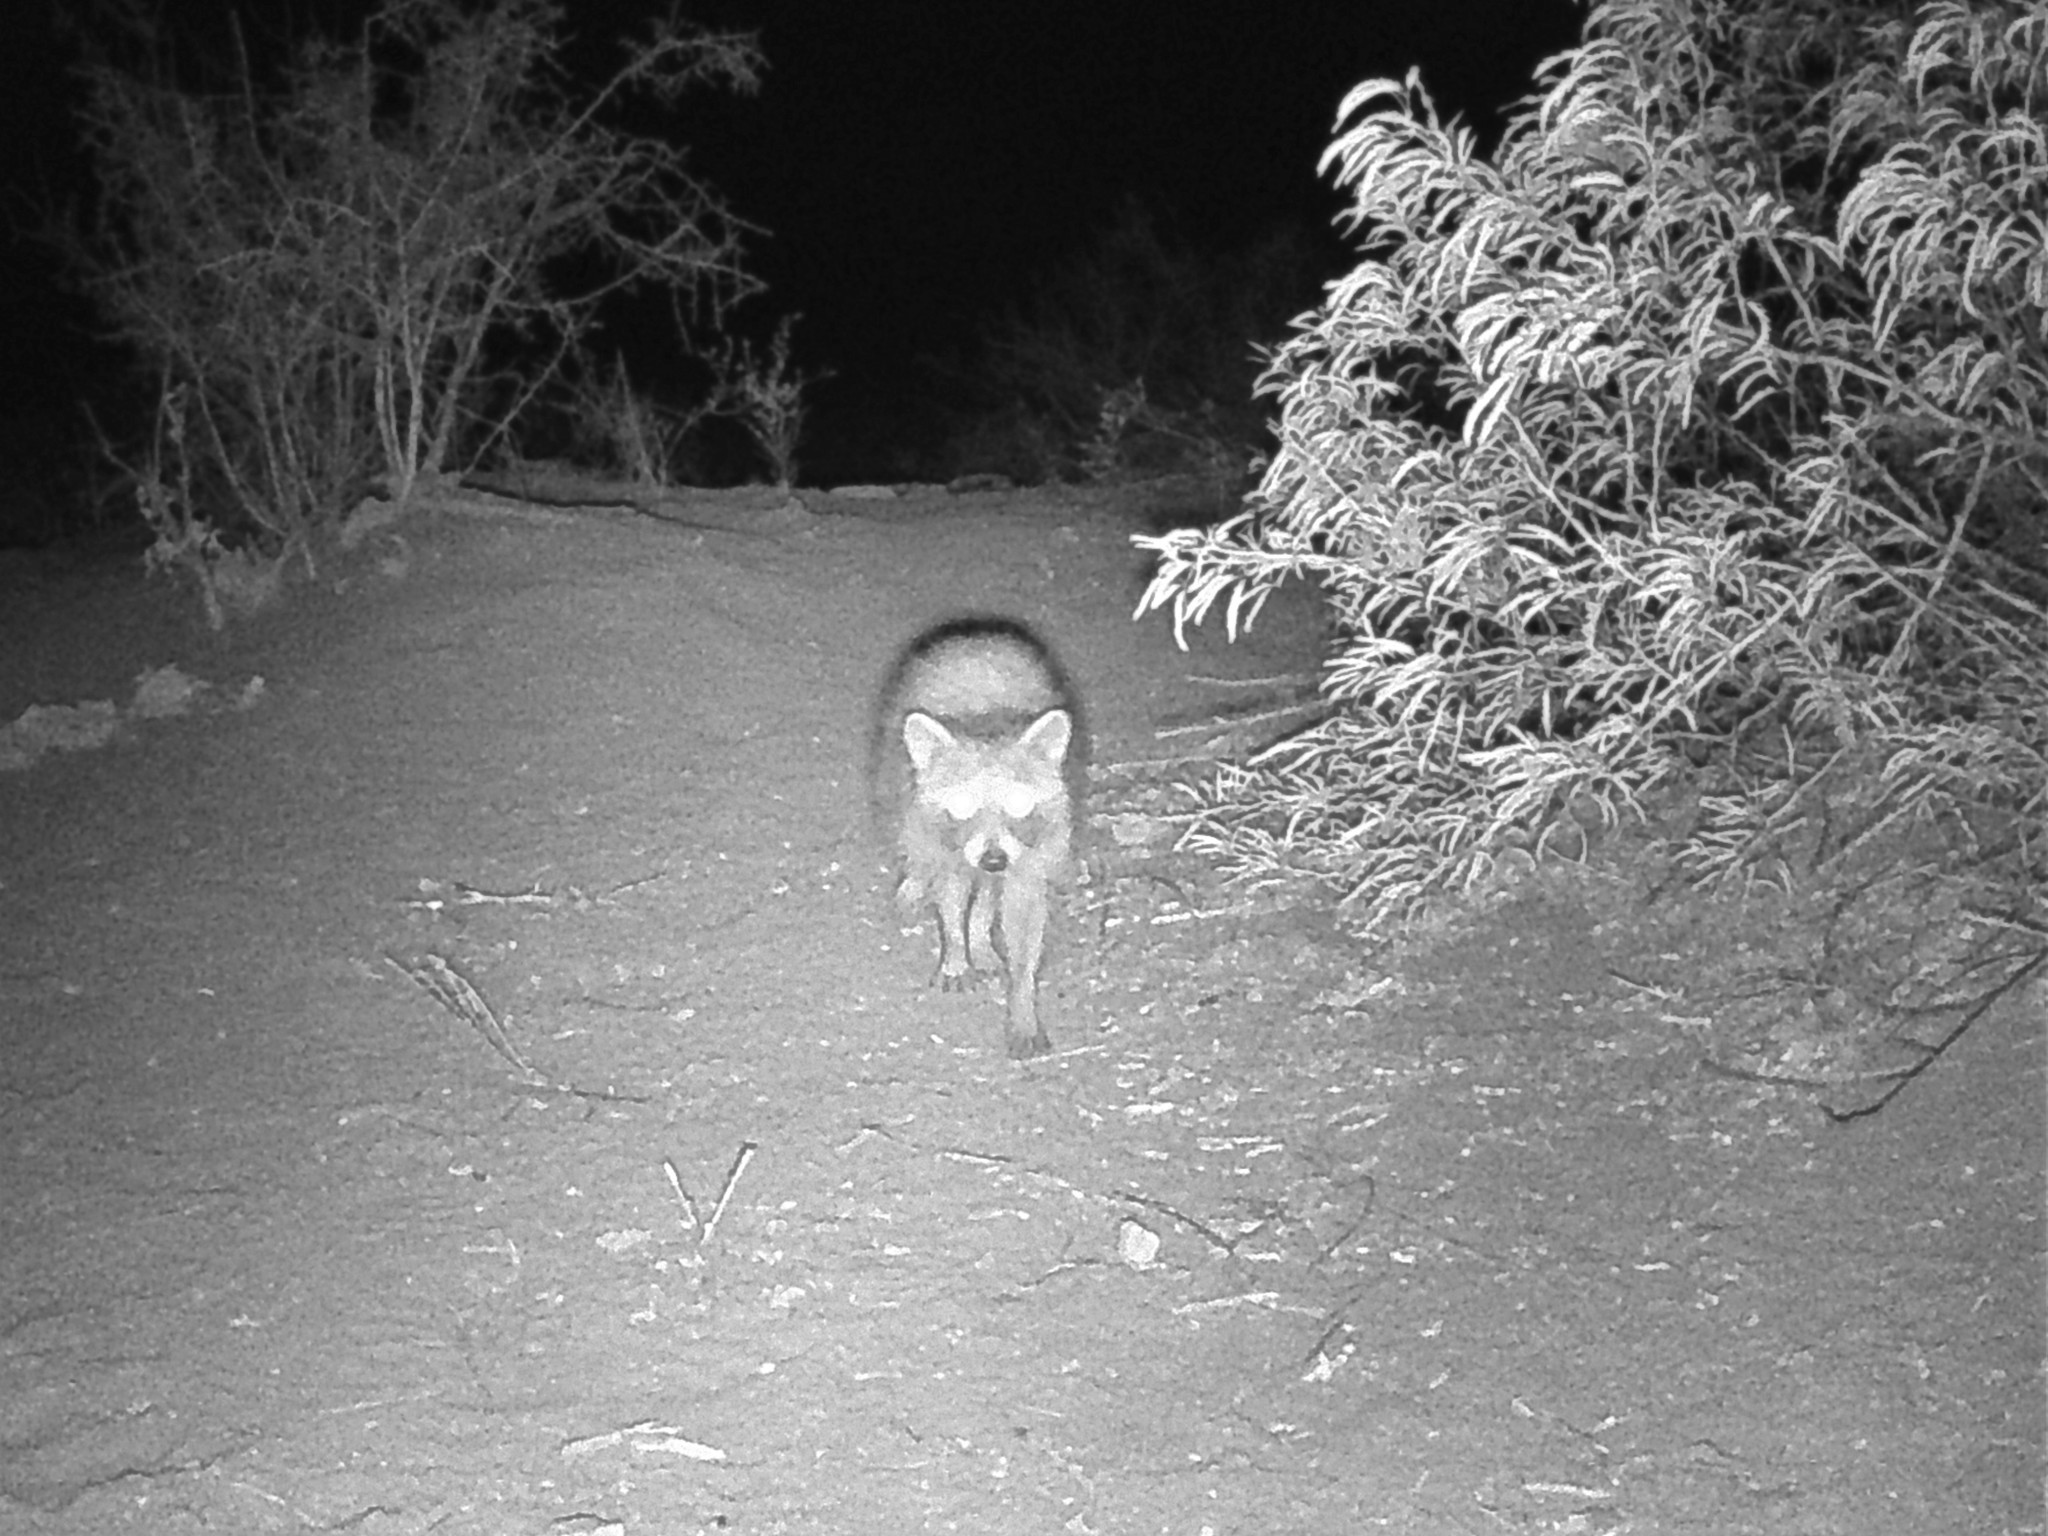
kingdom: Animalia
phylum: Chordata
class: Mammalia
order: Carnivora
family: Procyonidae
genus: Procyon
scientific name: Procyon lotor
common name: Raccoon
